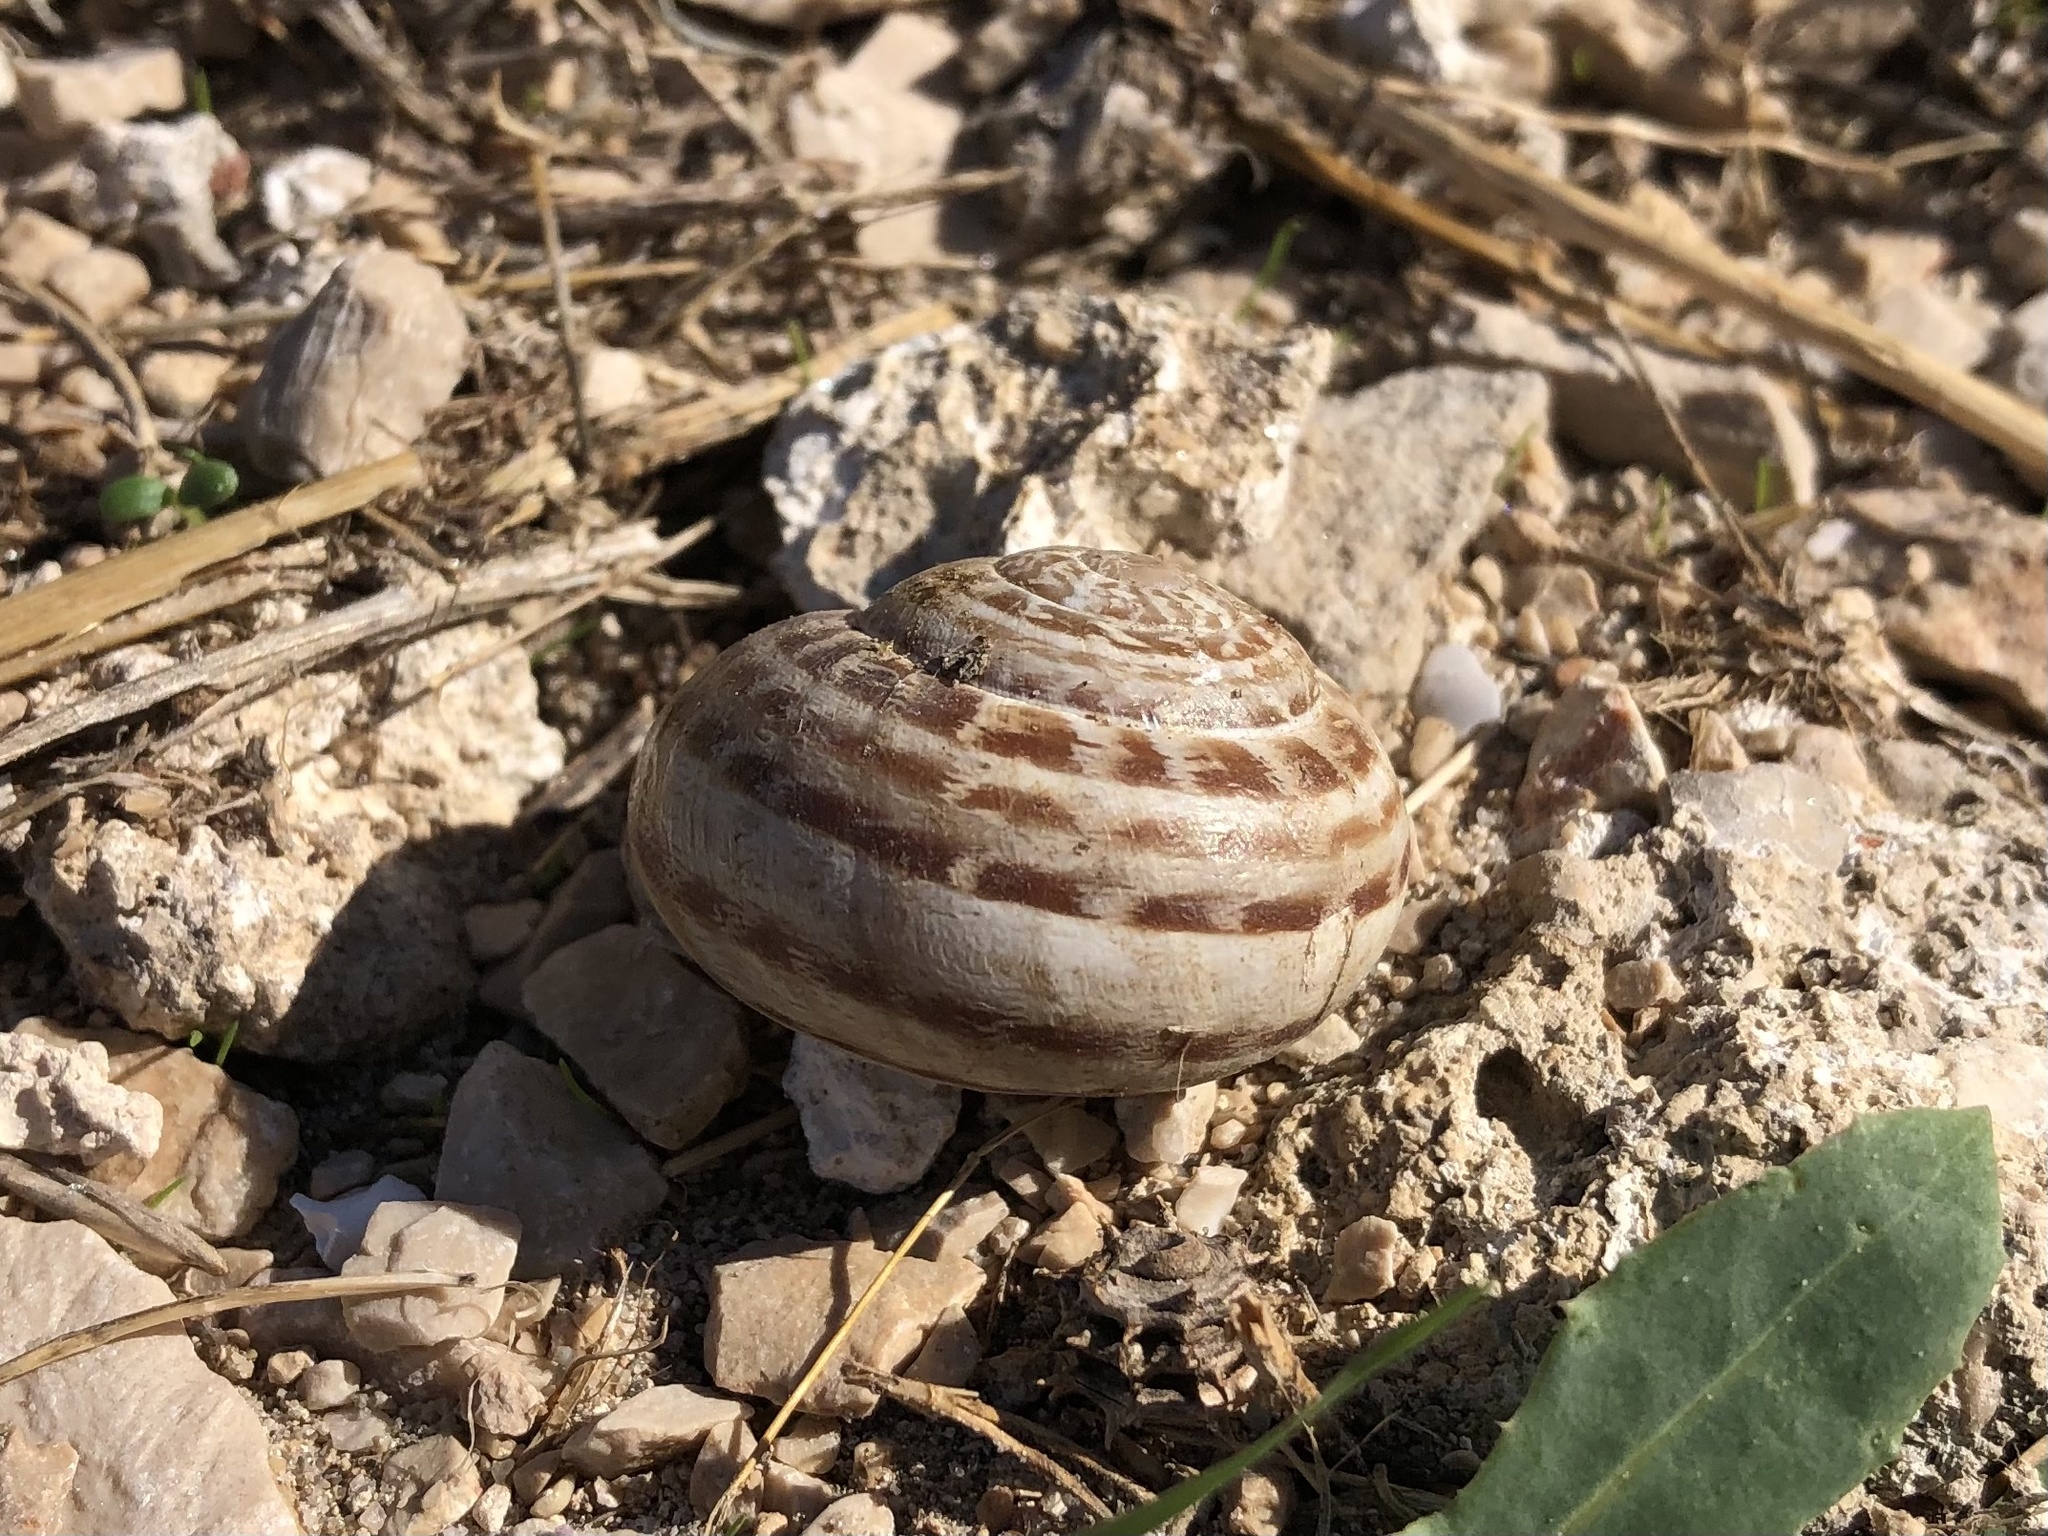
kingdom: Animalia
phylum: Mollusca
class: Gastropoda
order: Stylommatophora
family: Helicidae
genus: Eobania
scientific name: Eobania vermiculata
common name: Chocolateband snail
